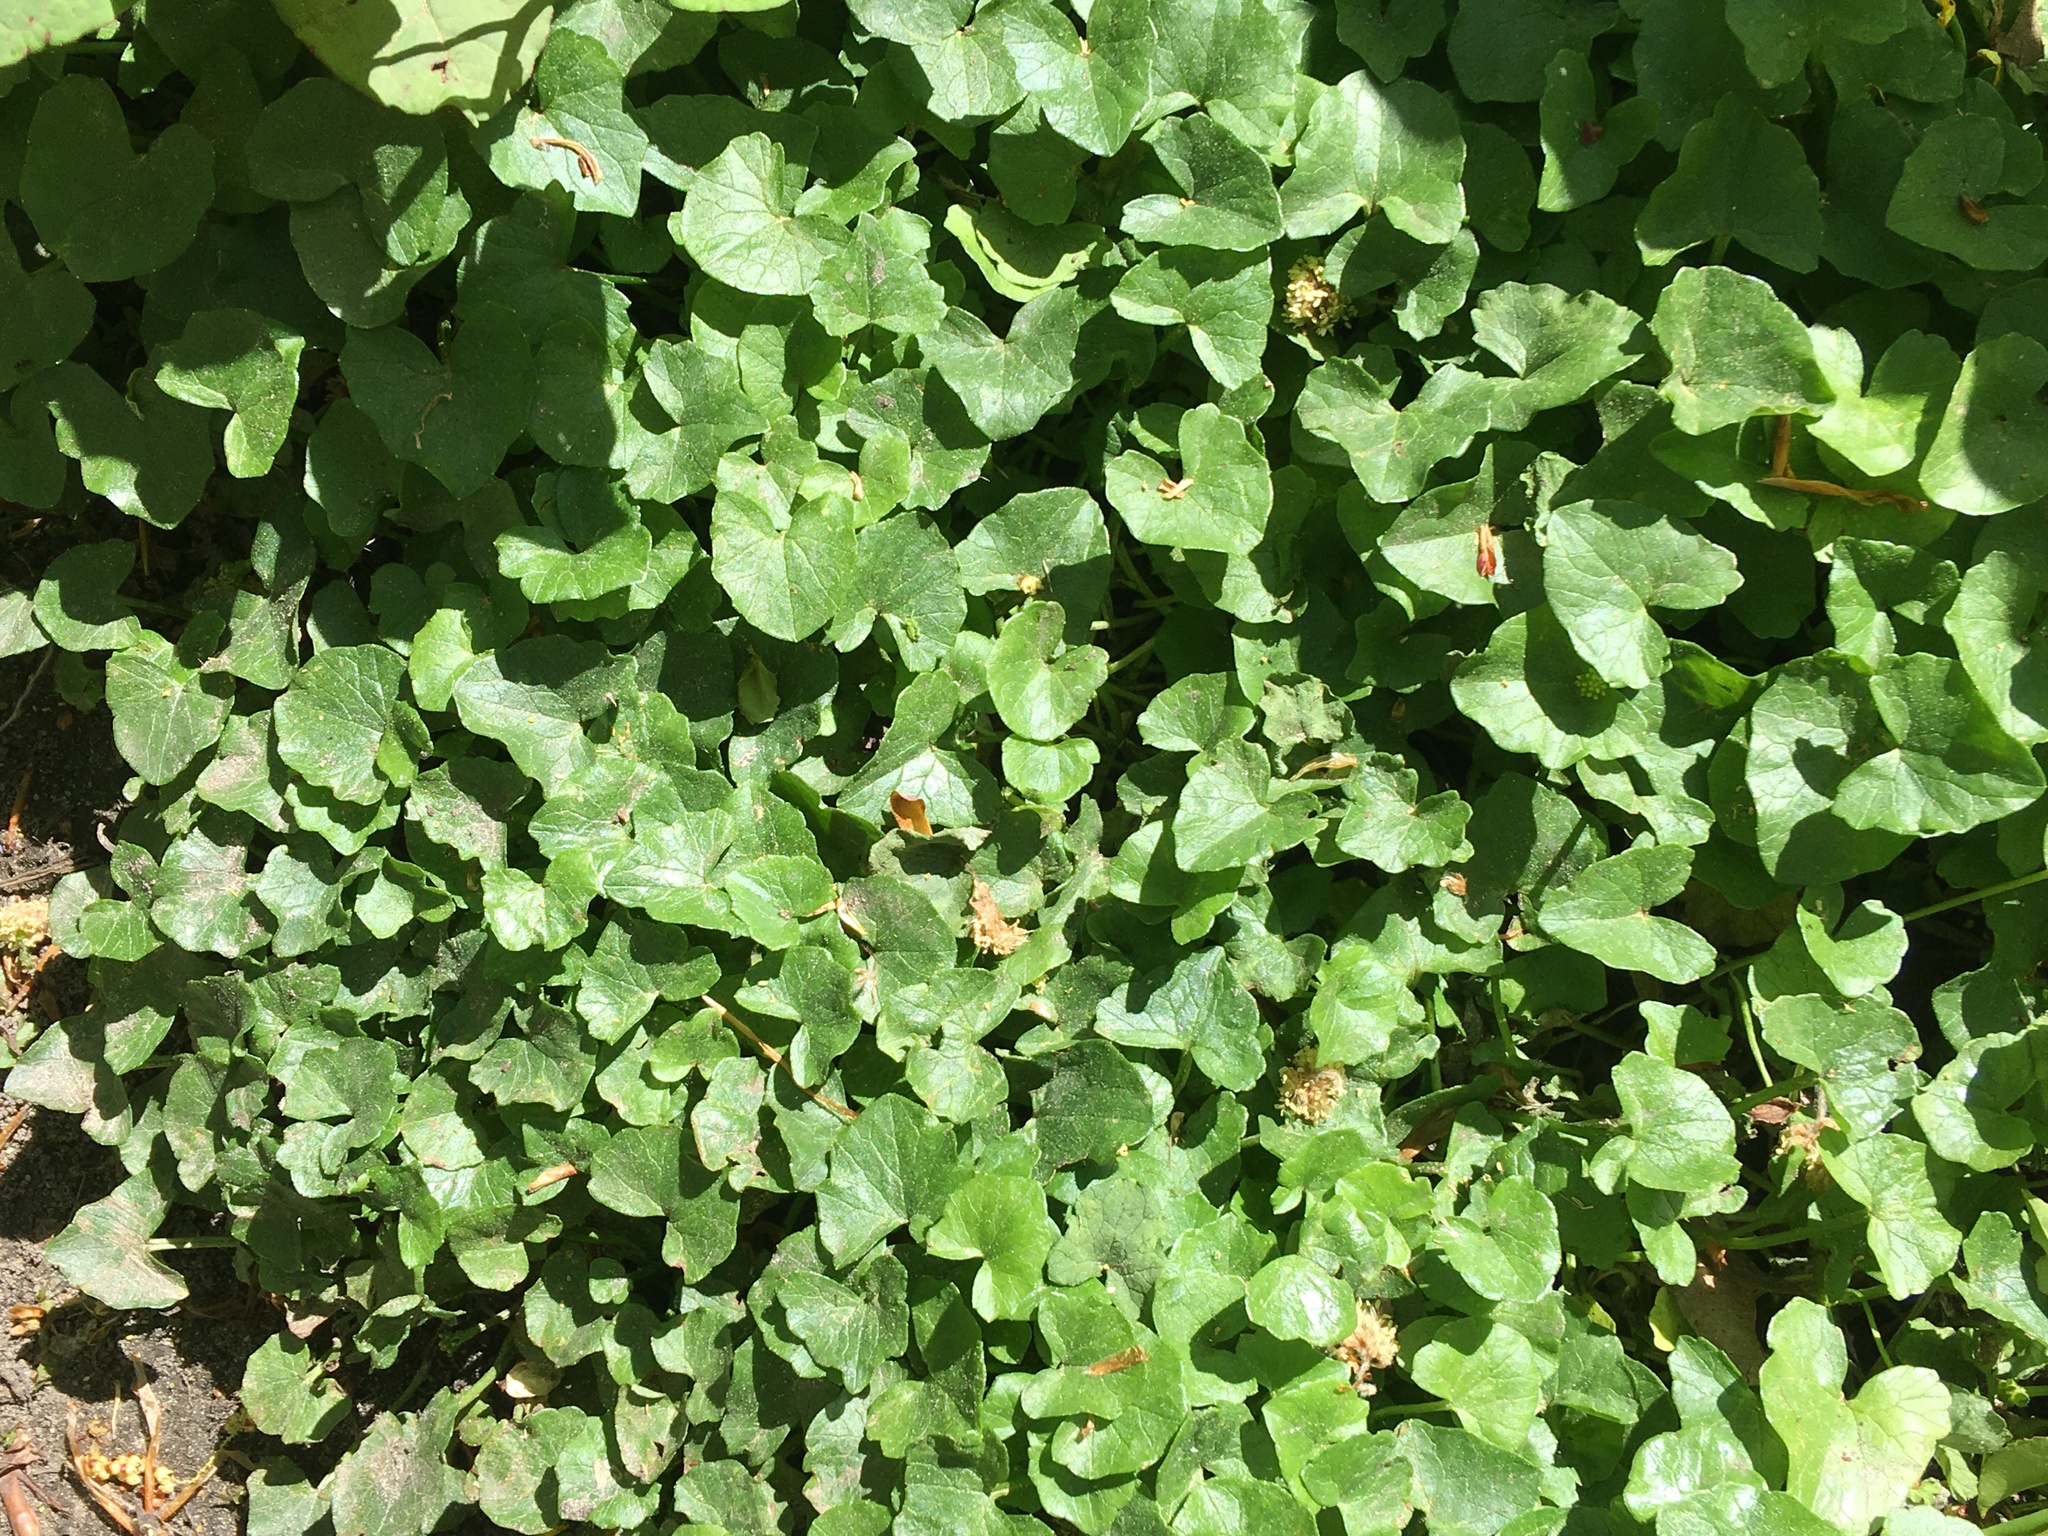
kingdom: Plantae
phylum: Tracheophyta
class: Magnoliopsida
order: Ranunculales
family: Ranunculaceae
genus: Ficaria
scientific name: Ficaria verna
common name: Lesser celandine
